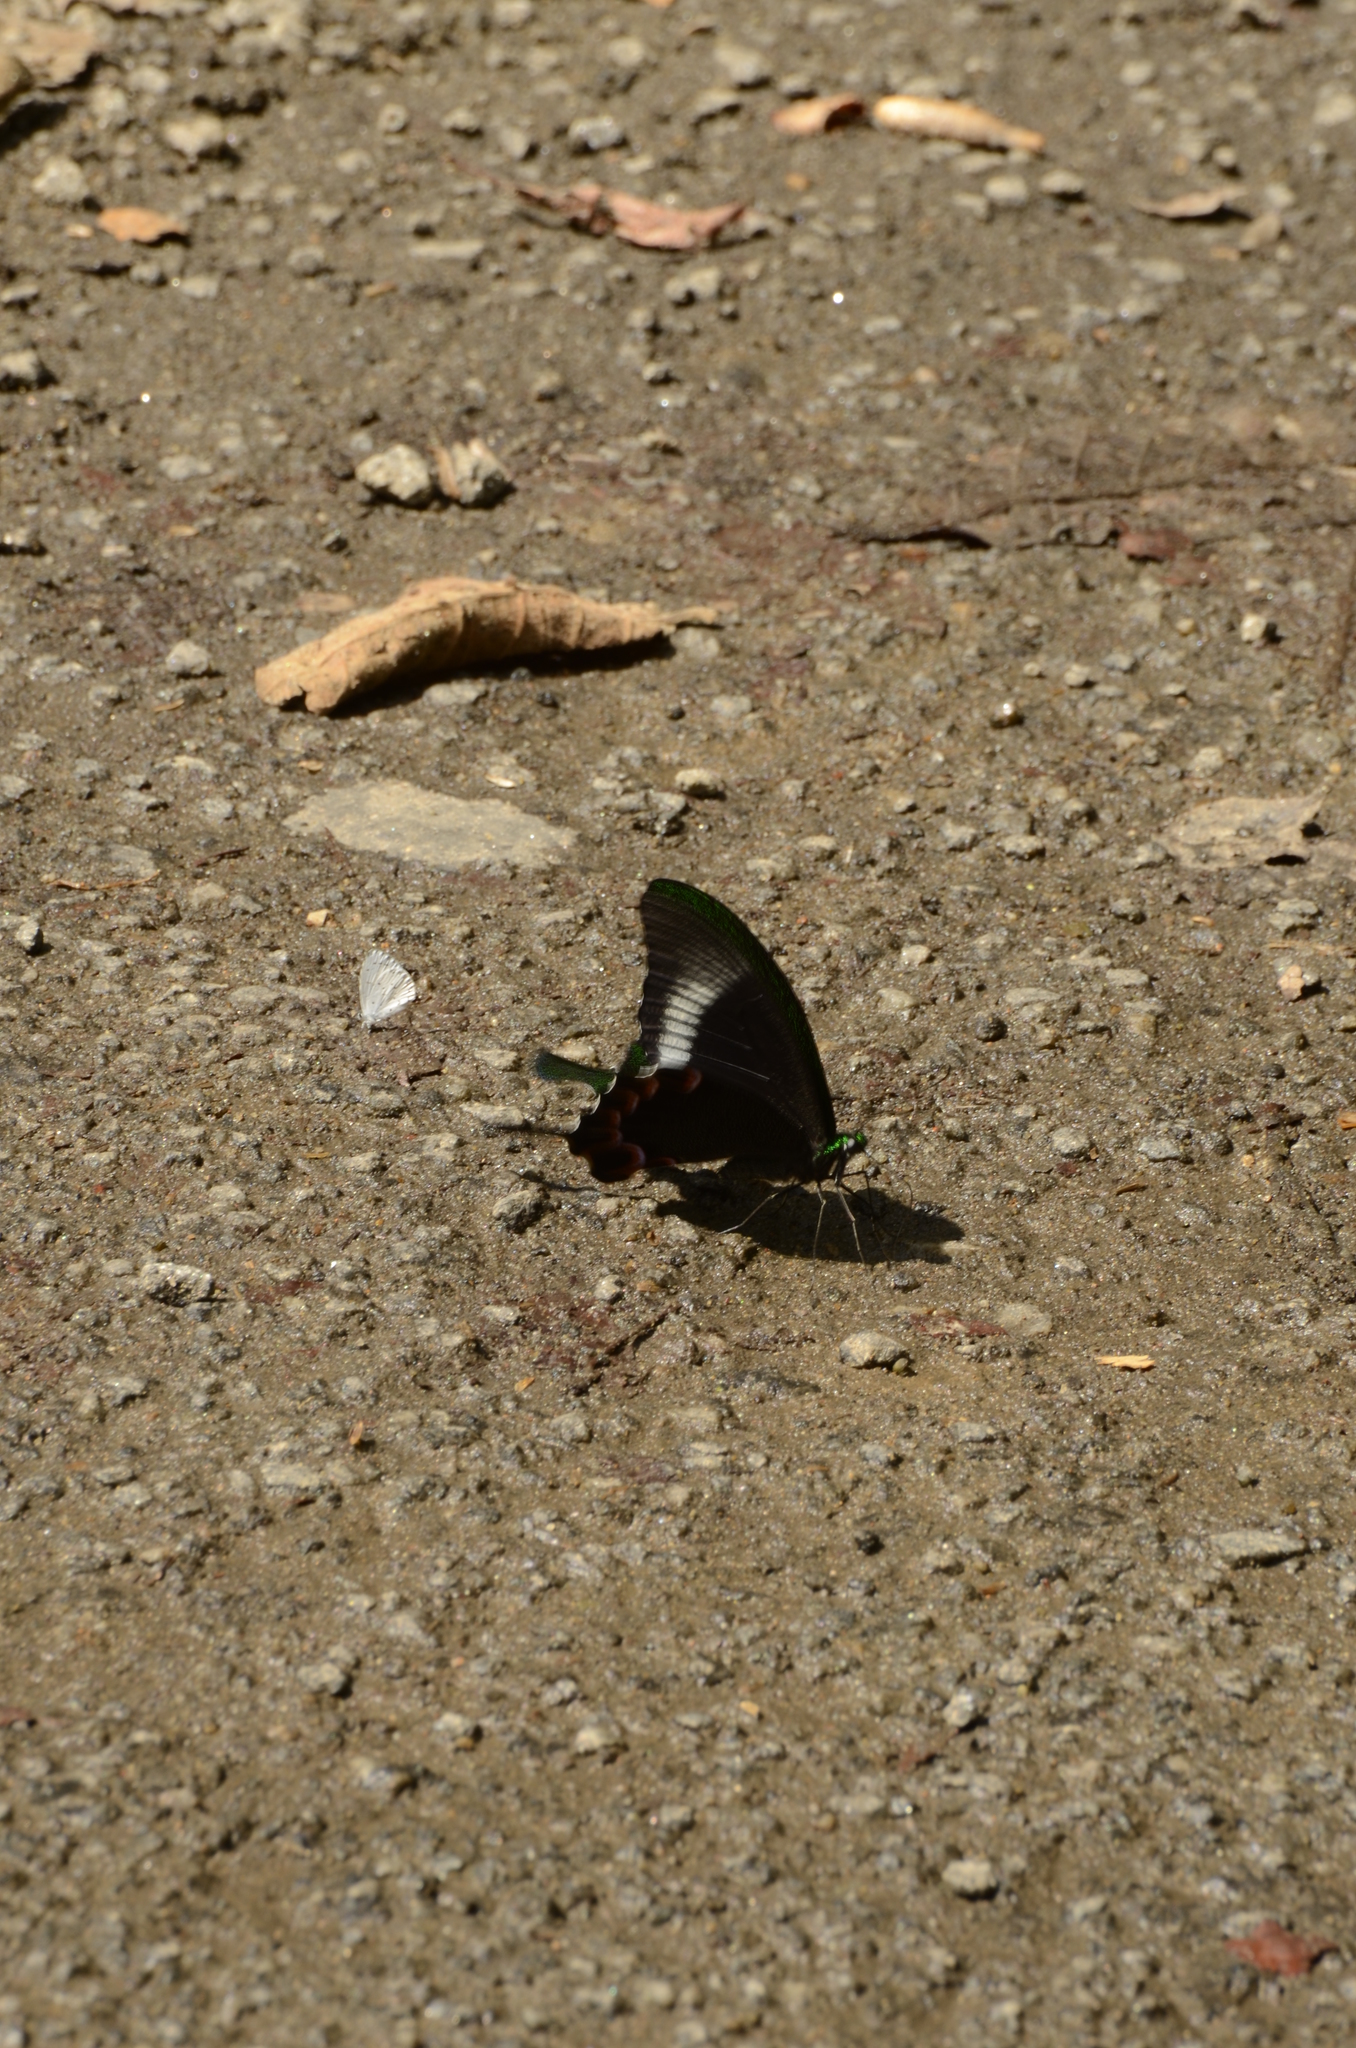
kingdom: Animalia
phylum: Arthropoda
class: Insecta
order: Lepidoptera
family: Papilionidae
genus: Papilio
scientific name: Papilio paris
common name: Paris peacock
